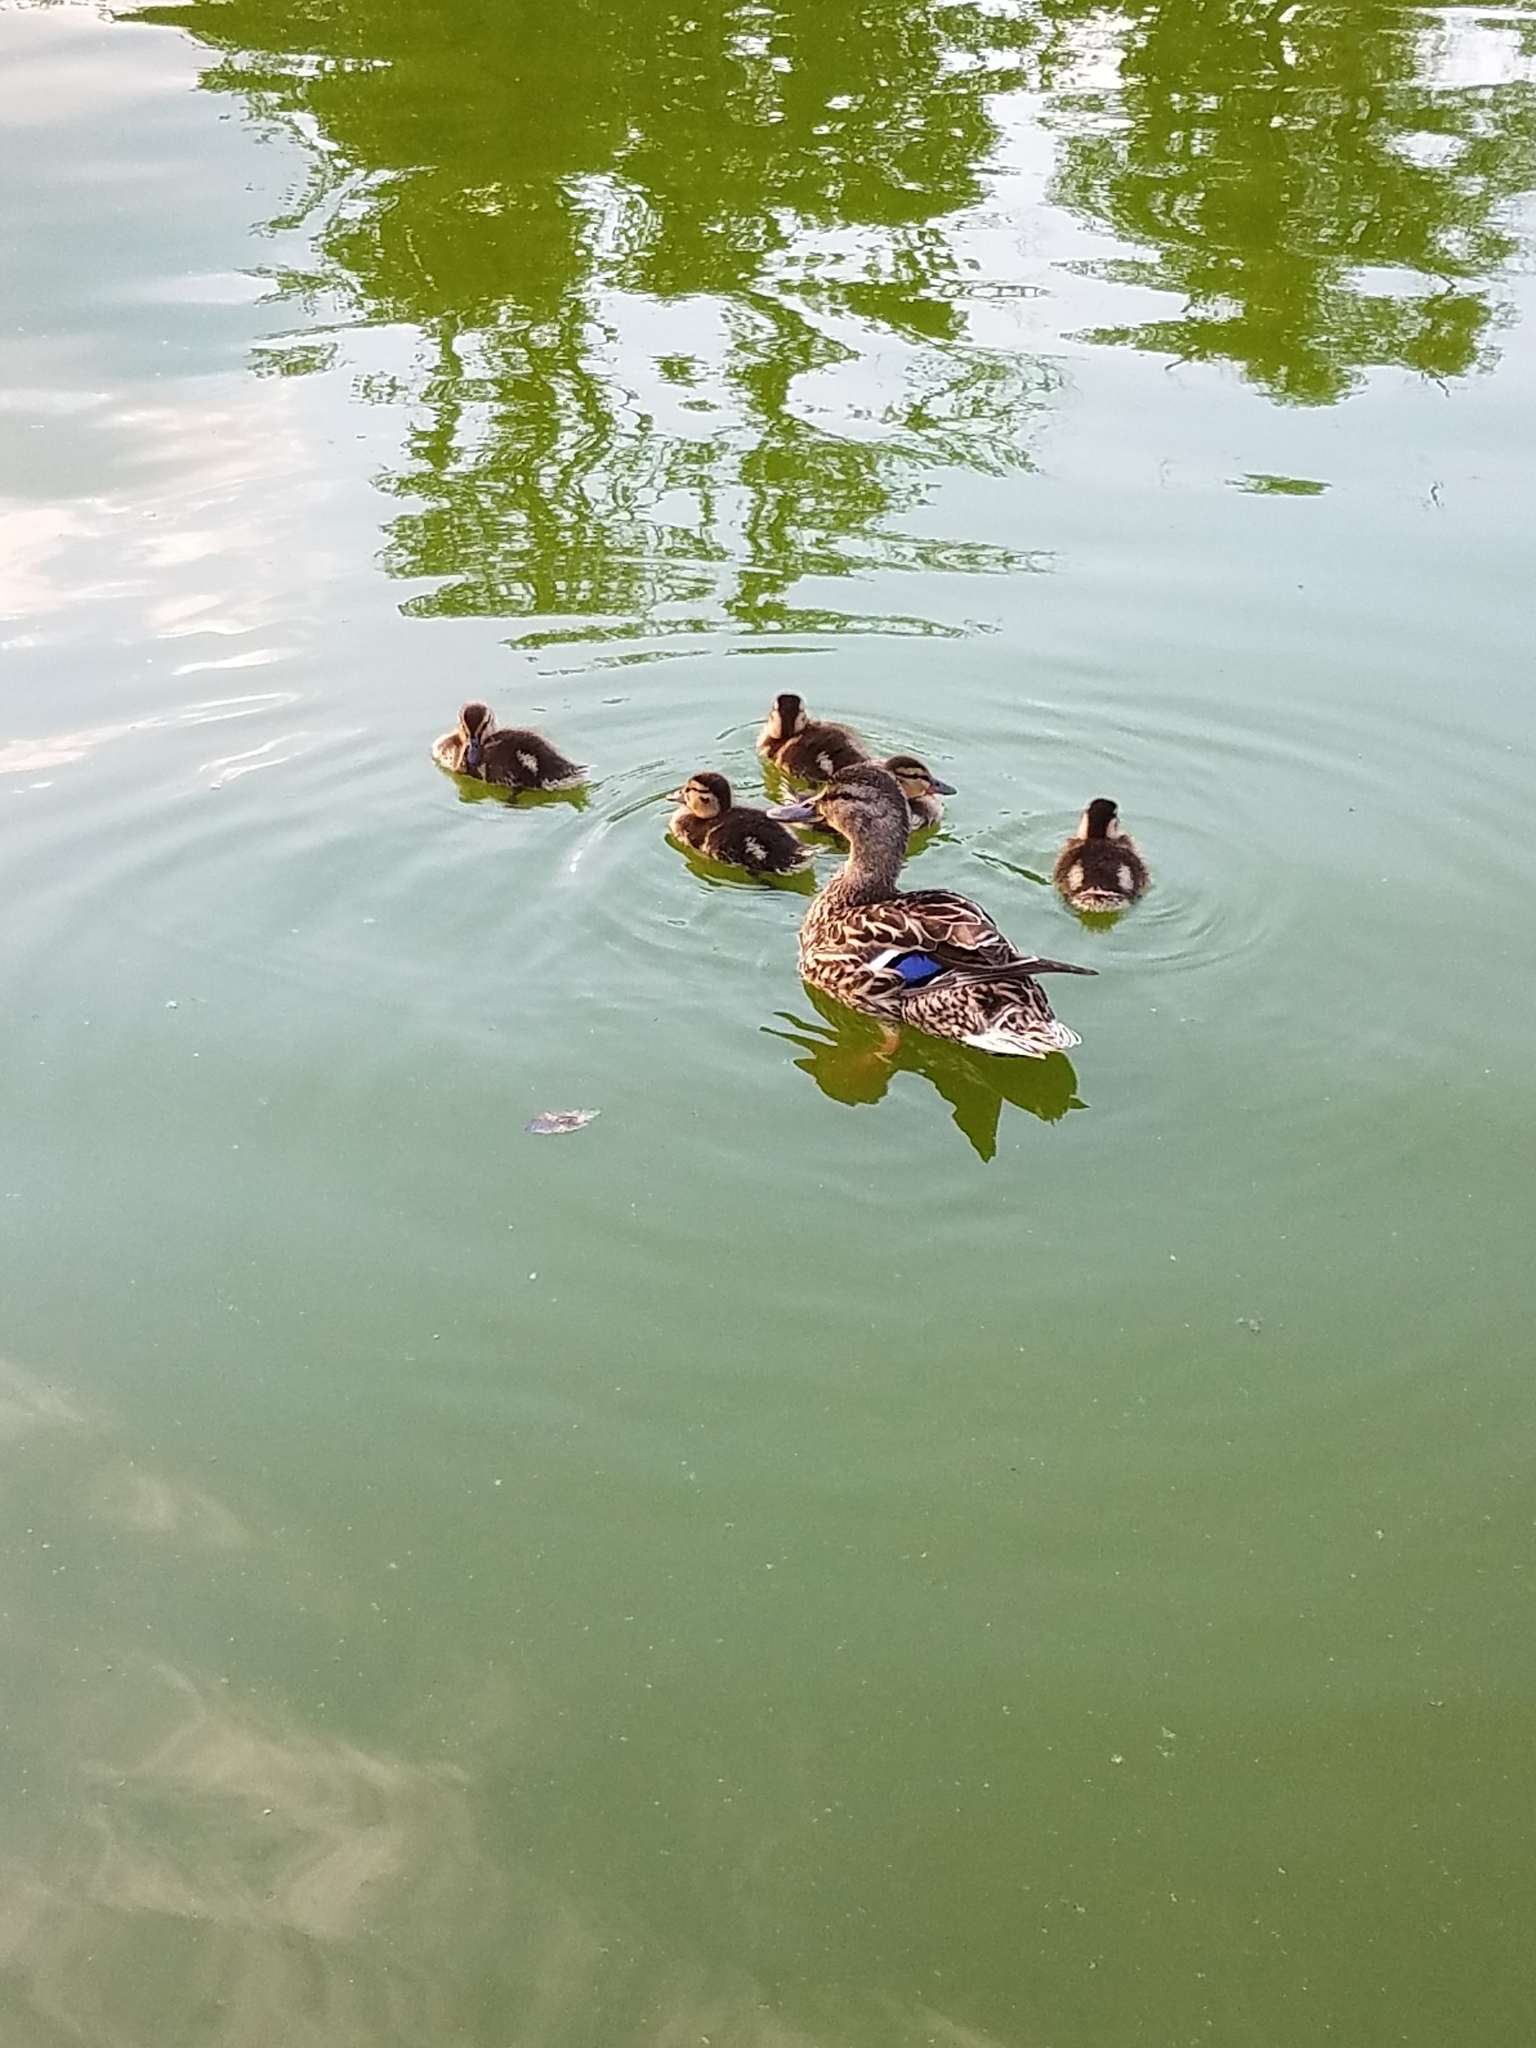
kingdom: Animalia
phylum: Chordata
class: Aves
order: Anseriformes
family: Anatidae
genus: Anas
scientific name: Anas platyrhynchos
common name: Mallard
